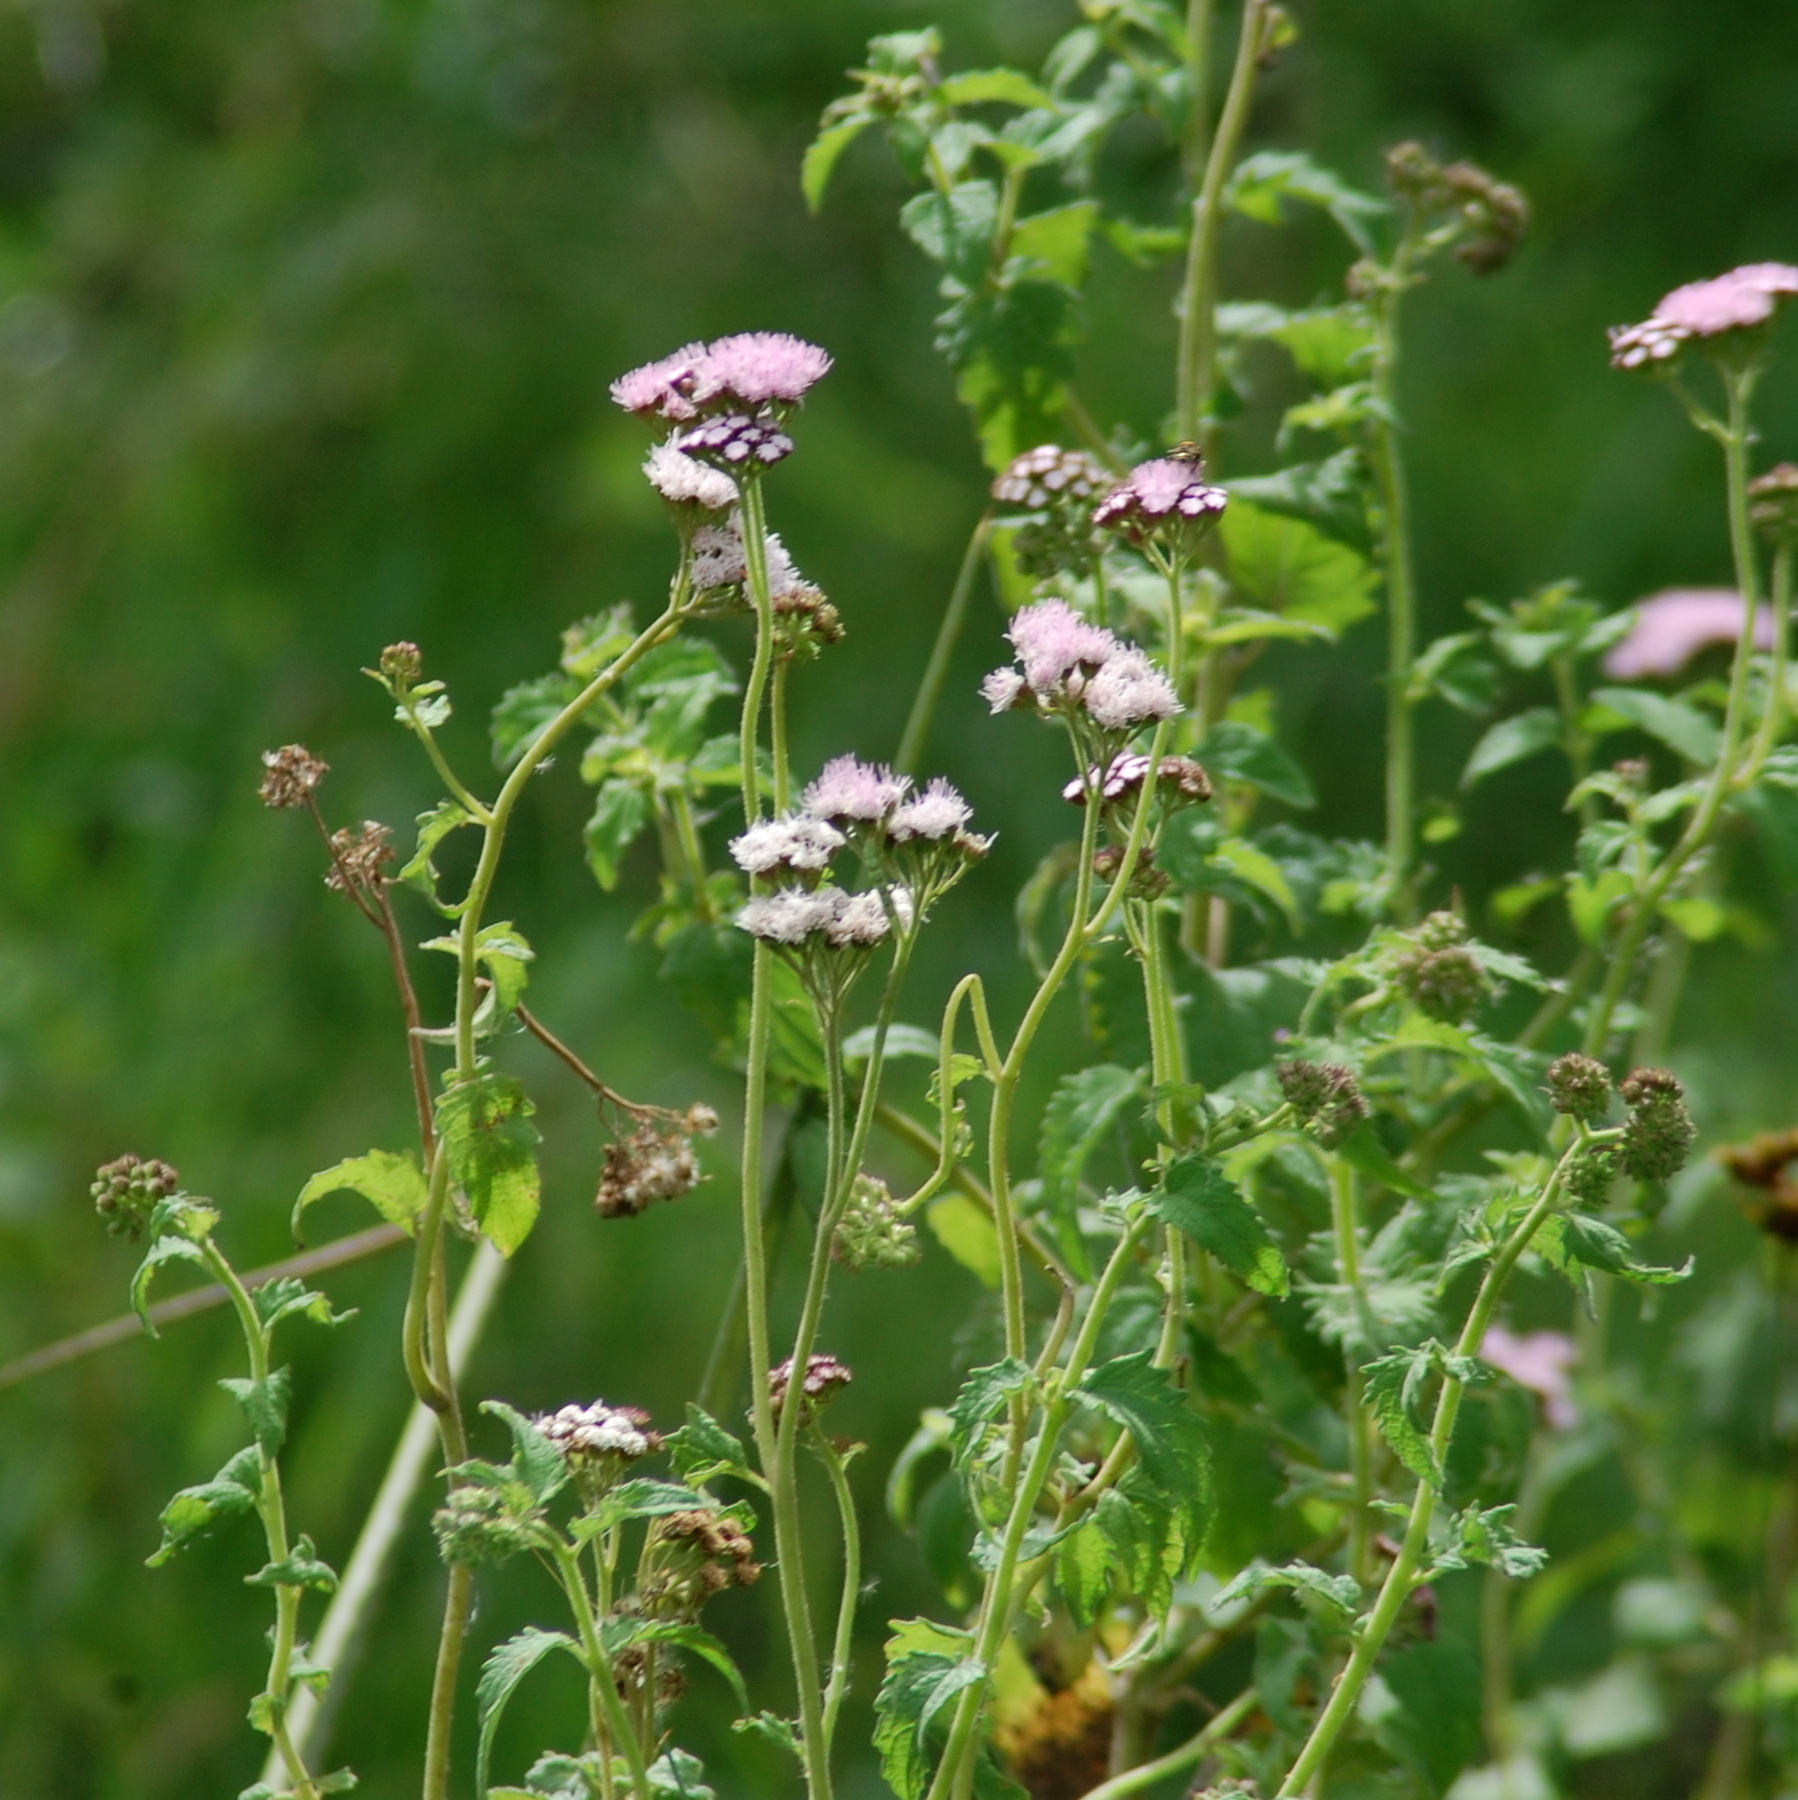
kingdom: Plantae
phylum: Tracheophyta
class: Magnoliopsida
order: Asterales
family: Asteraceae
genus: Barrosoa
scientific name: Barrosoa betoniciformis
